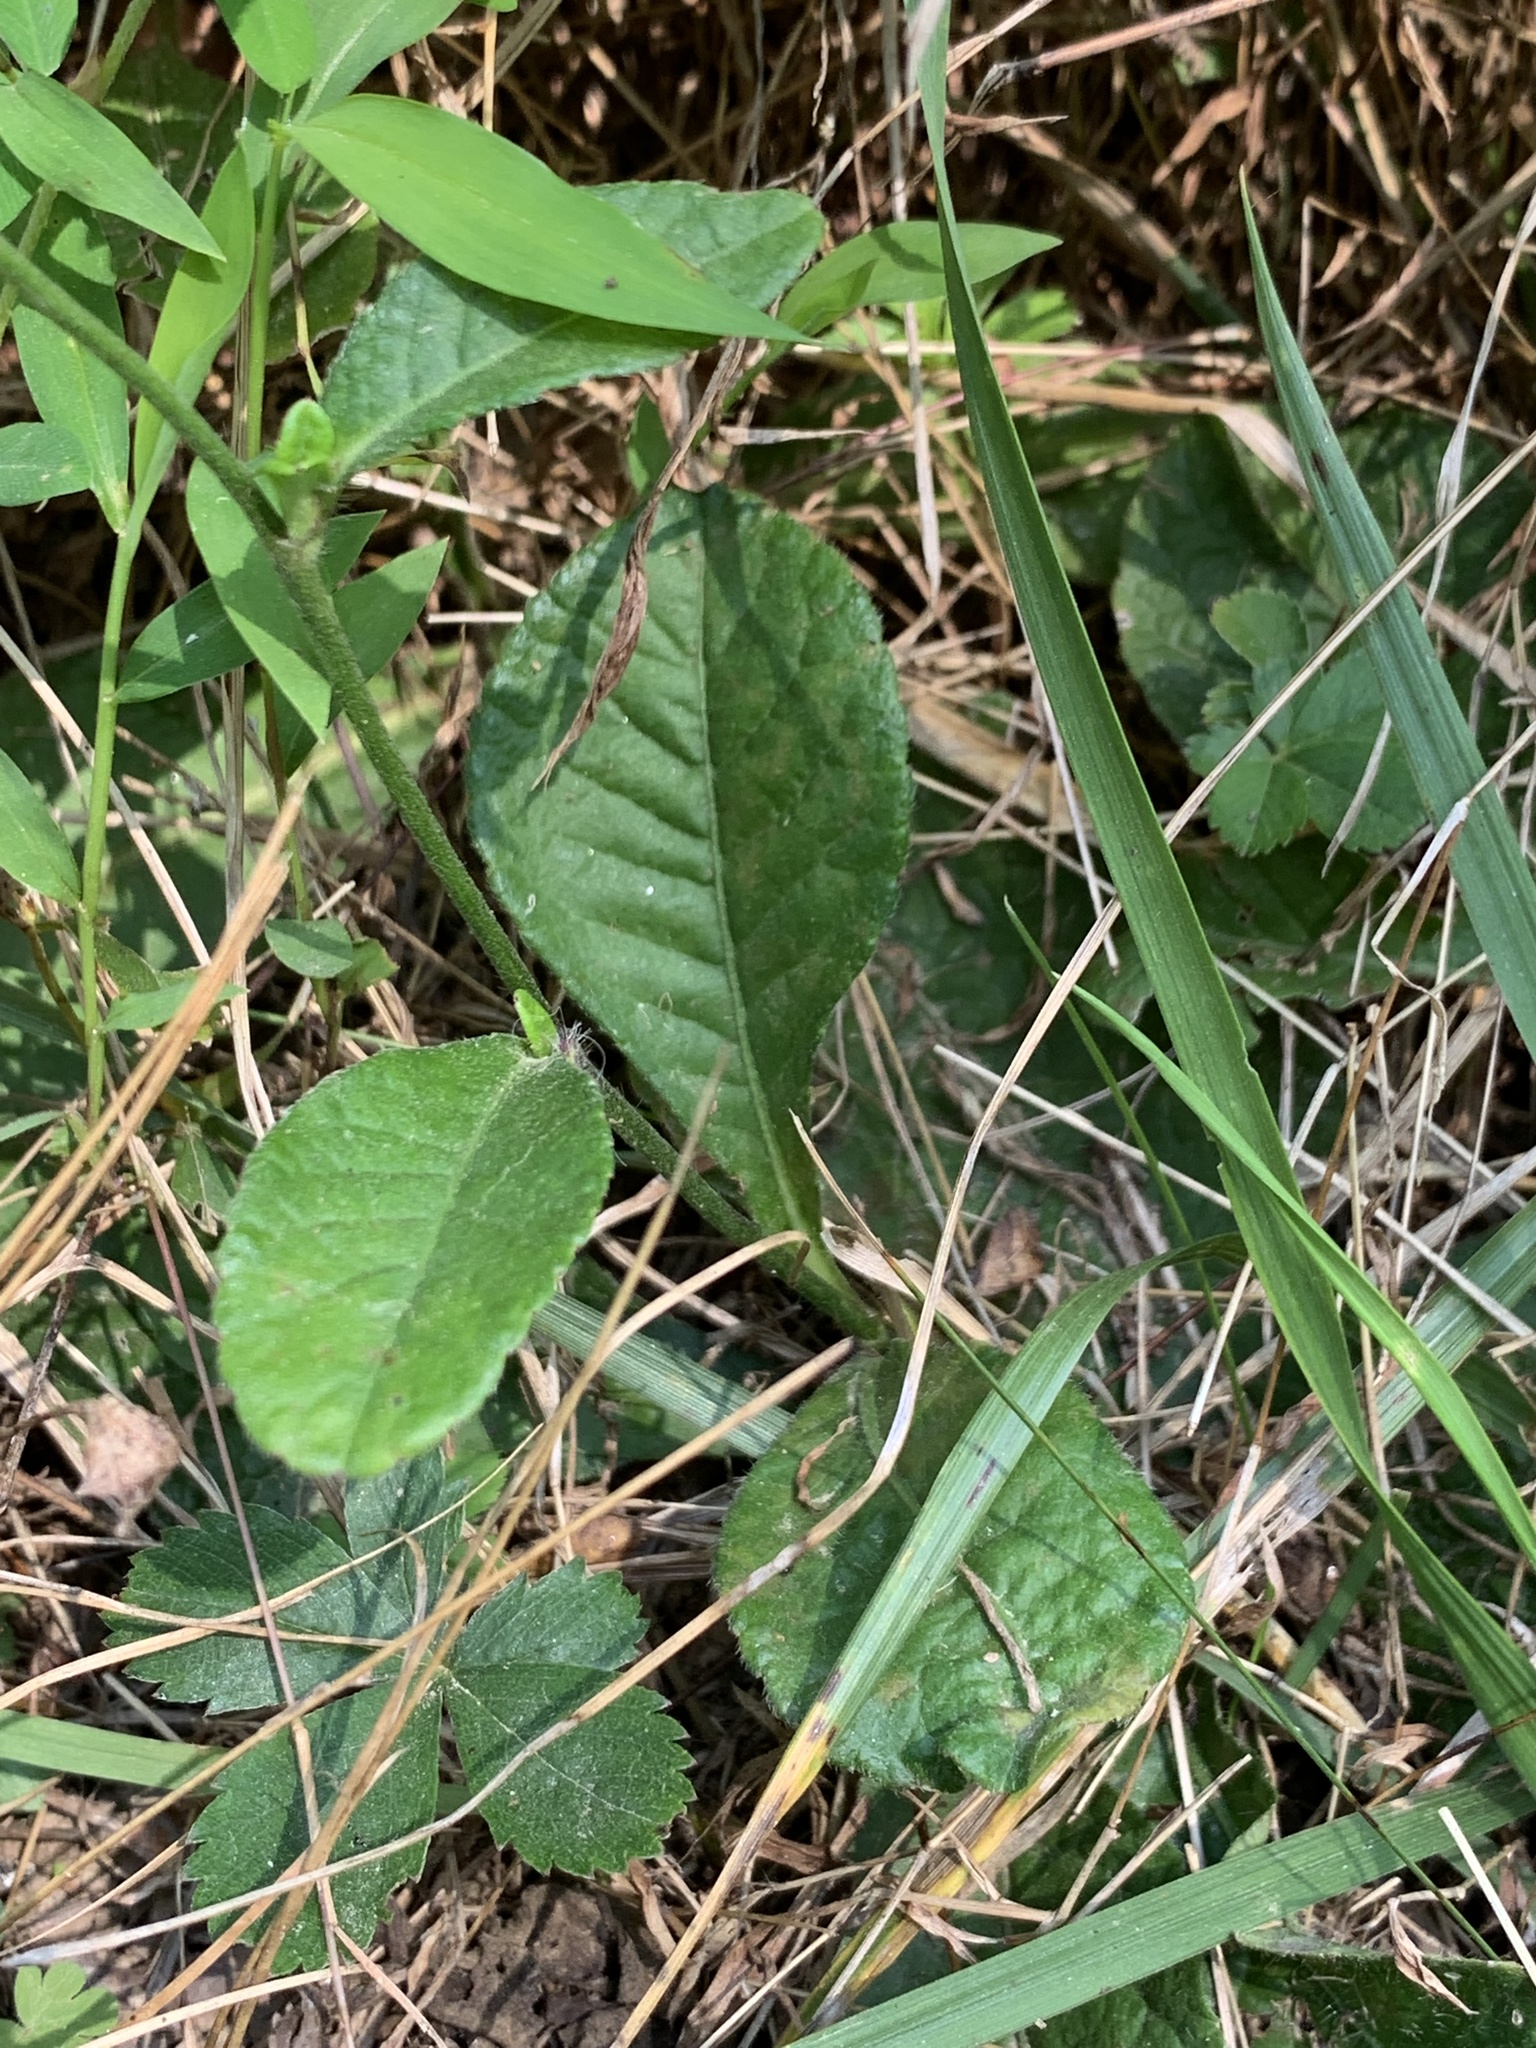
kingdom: Plantae
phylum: Tracheophyta
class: Magnoliopsida
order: Asterales
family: Asteraceae
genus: Elephantopus
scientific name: Elephantopus tomentosus
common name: Tobacco-weed
